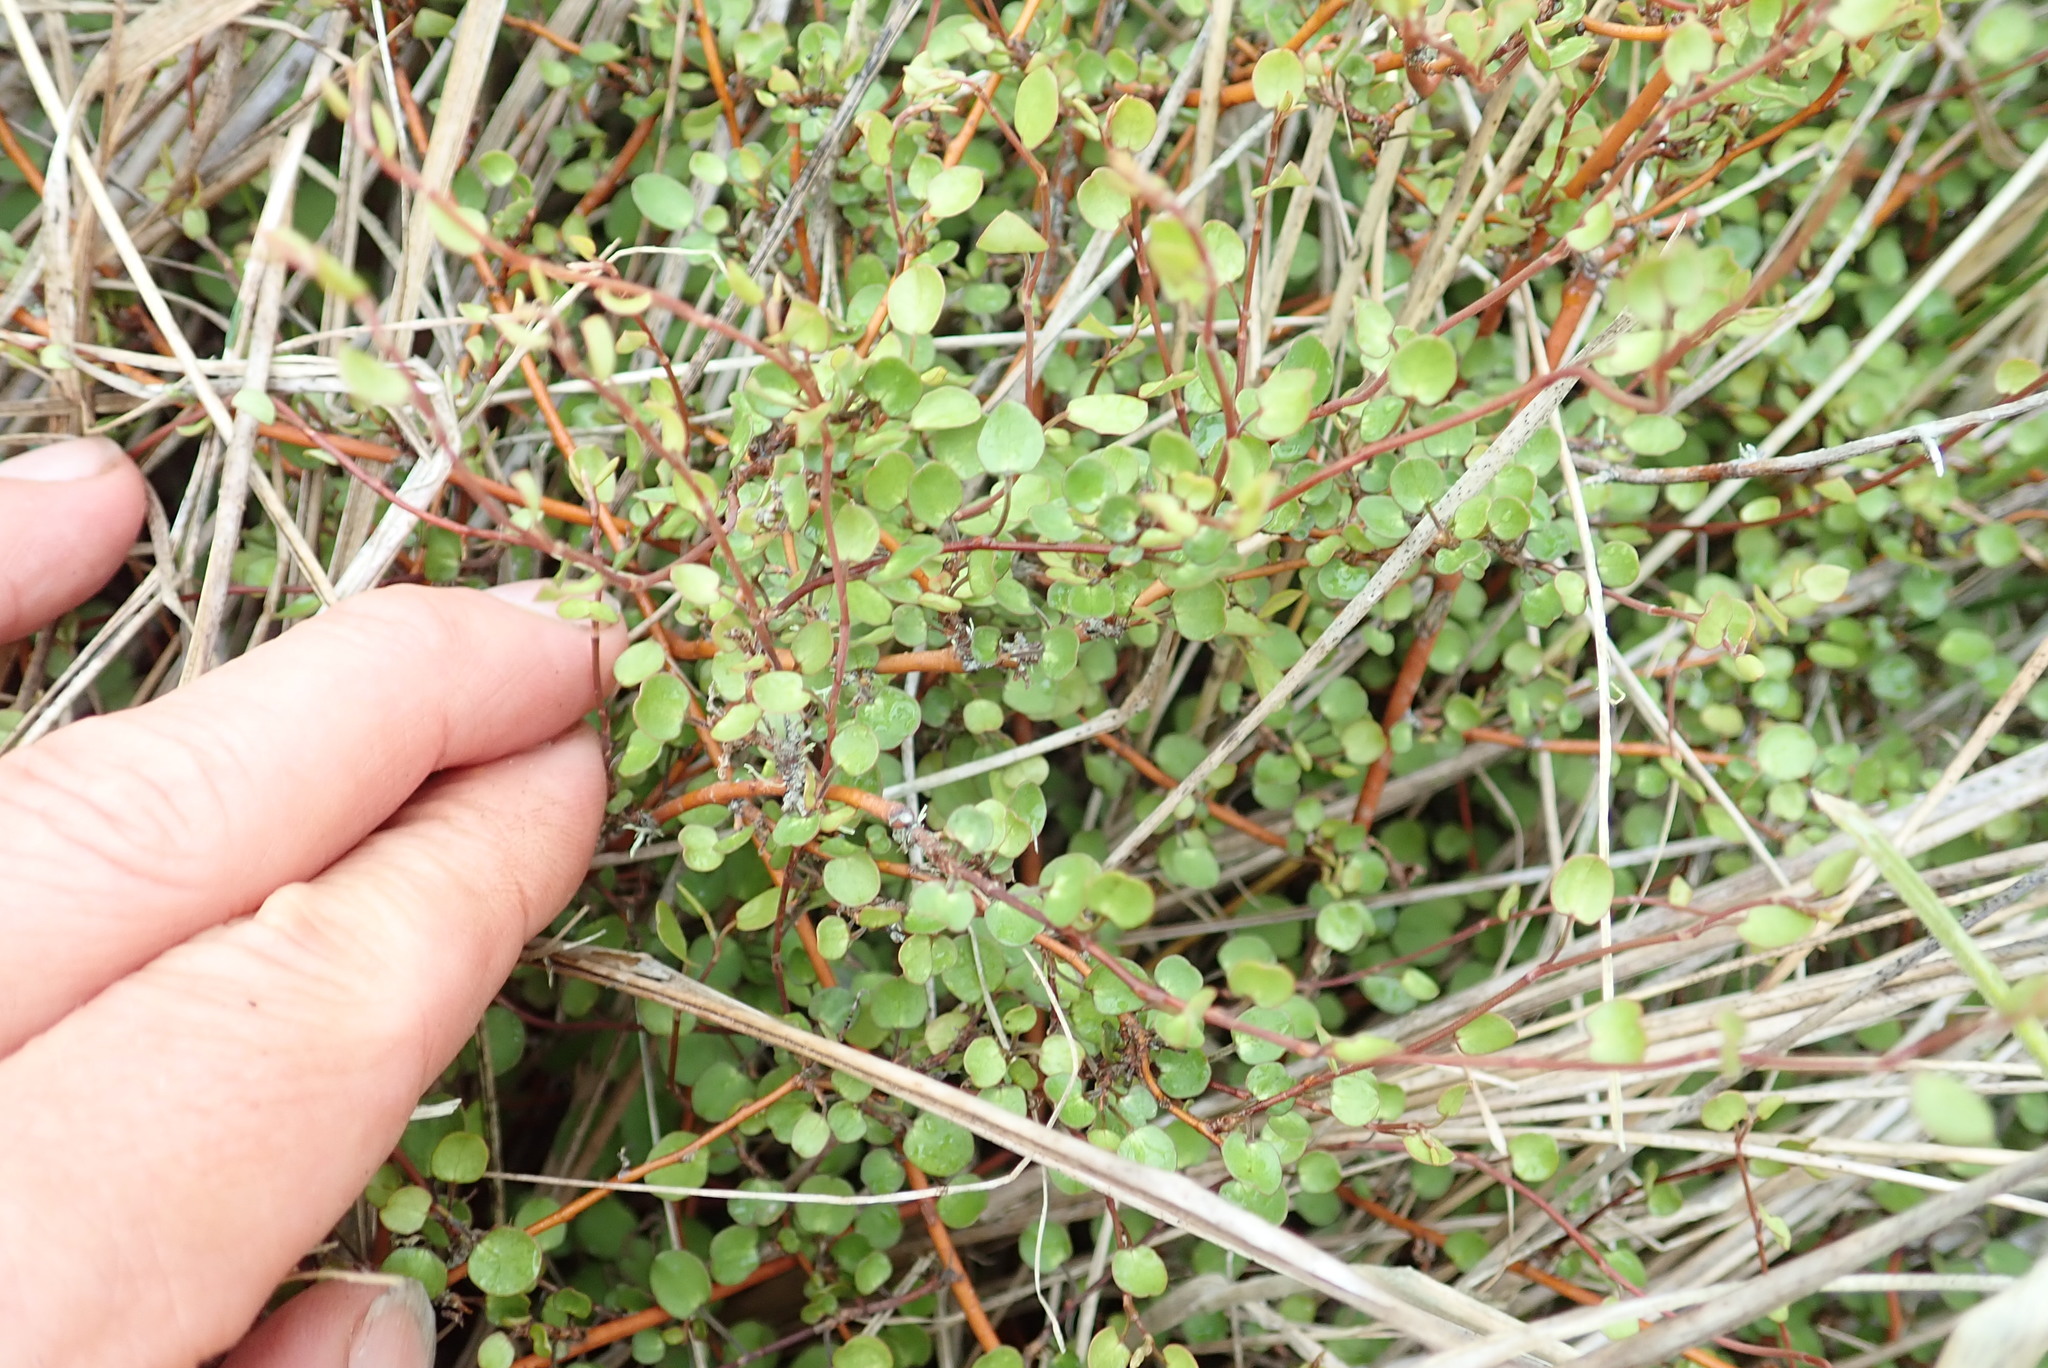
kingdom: Plantae
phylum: Tracheophyta
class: Magnoliopsida
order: Caryophyllales
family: Polygonaceae
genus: Muehlenbeckia
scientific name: Muehlenbeckia complexa
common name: Wireplant
